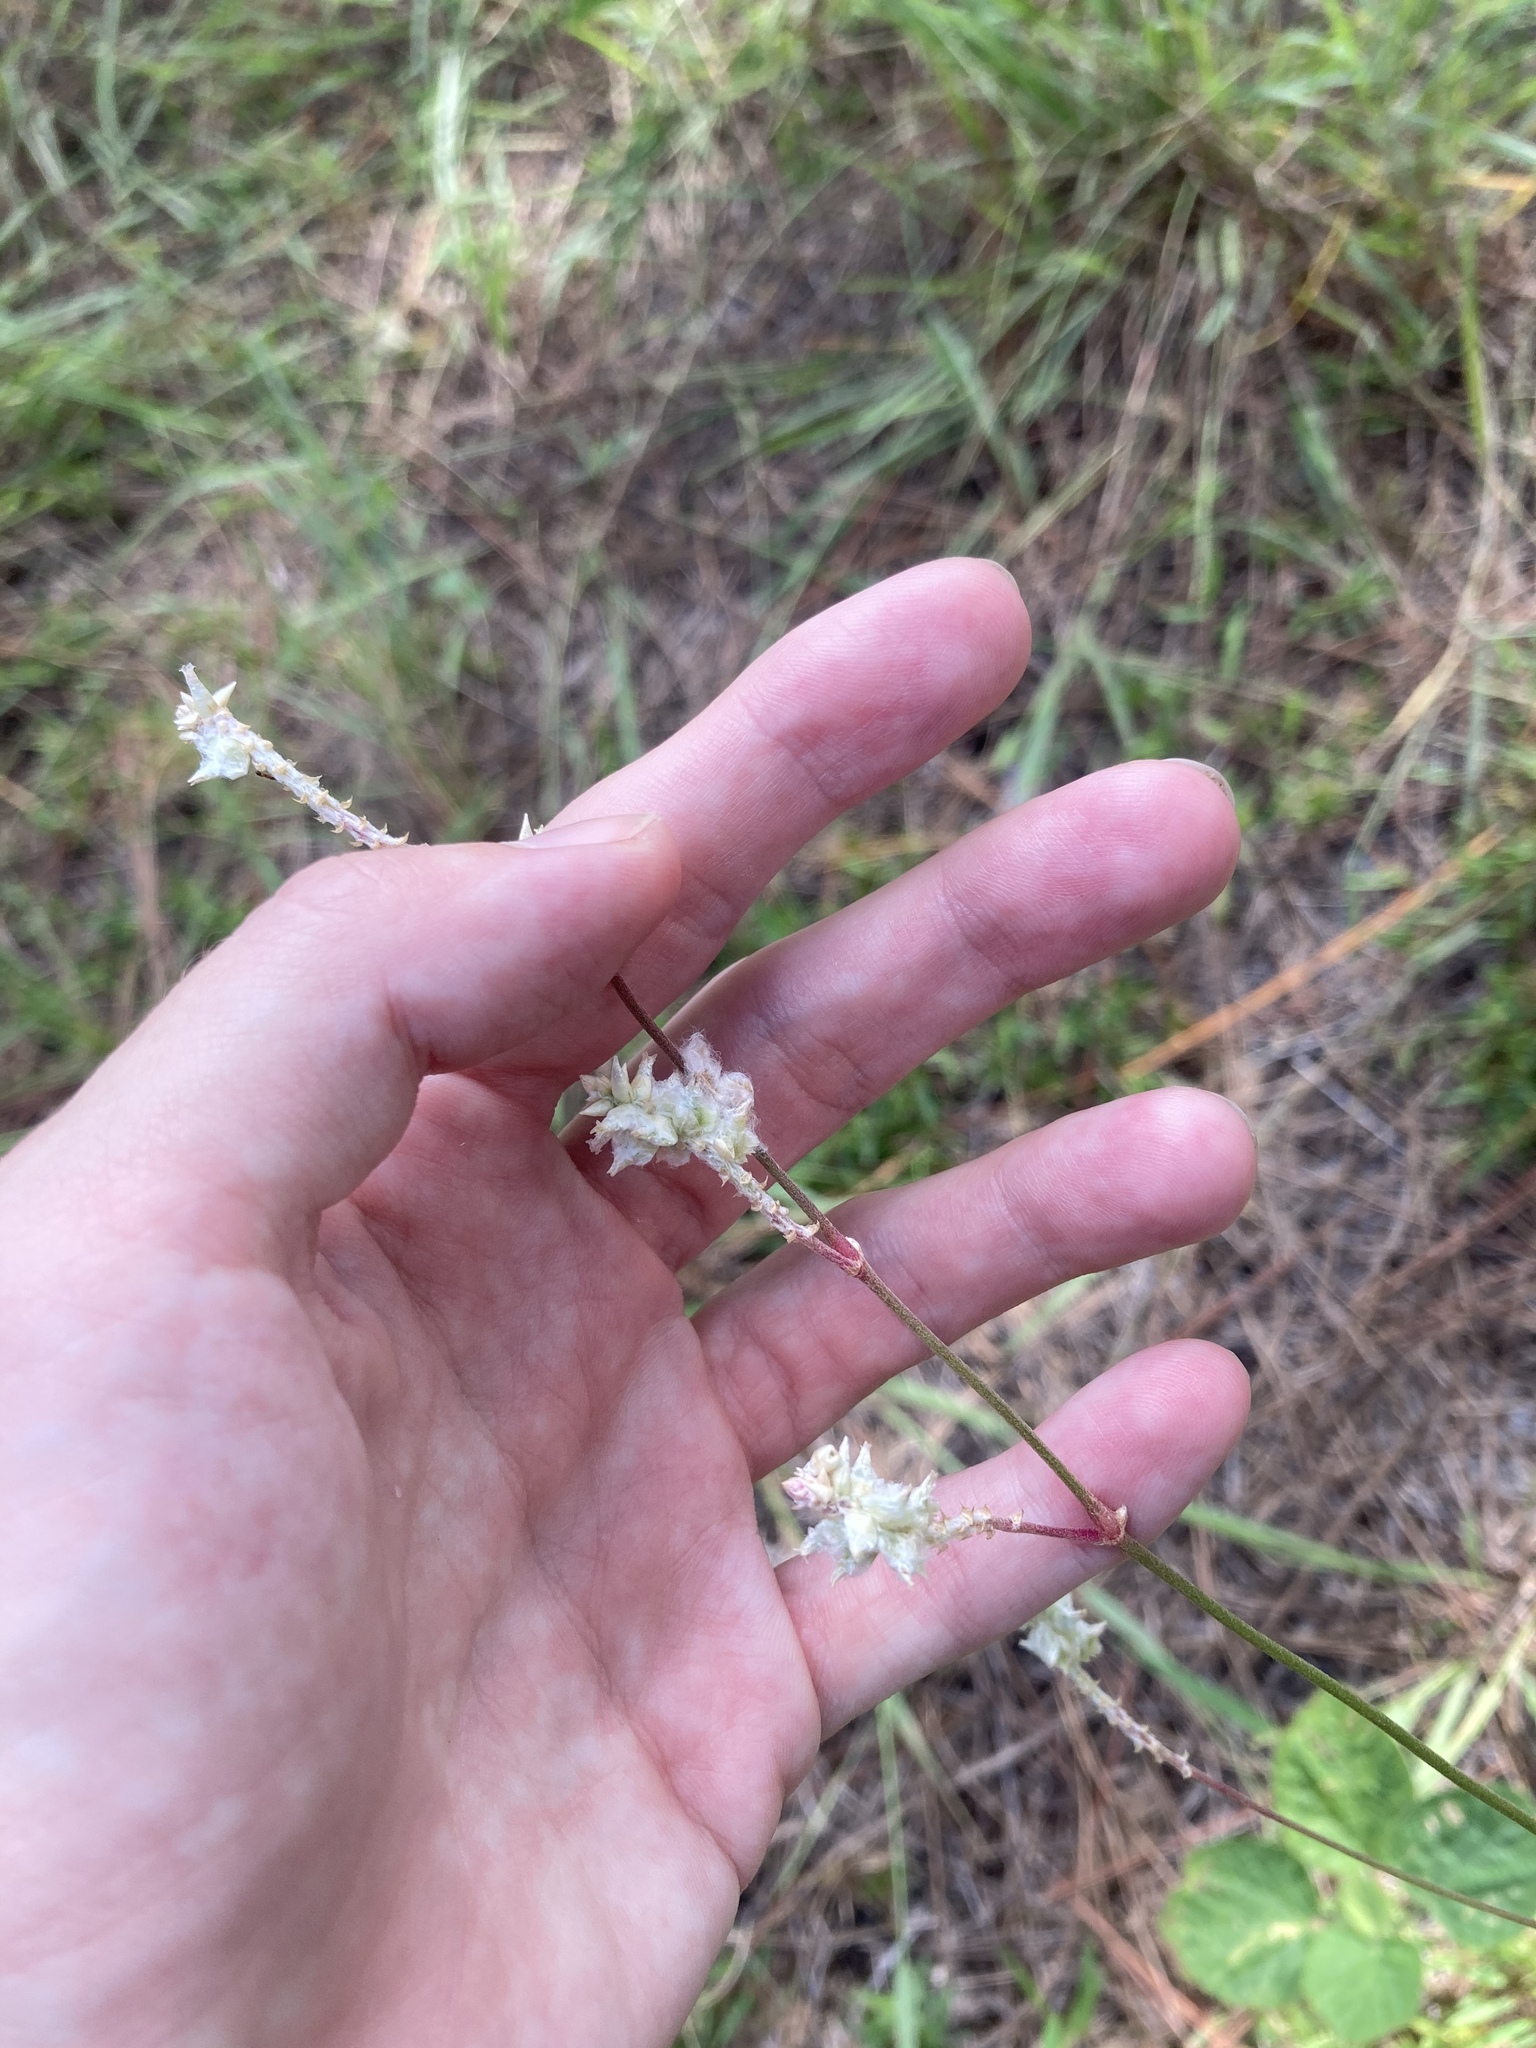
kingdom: Plantae
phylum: Tracheophyta
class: Magnoliopsida
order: Caryophyllales
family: Amaranthaceae
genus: Froelichia
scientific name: Froelichia floridana
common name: Florida snake-cotton
